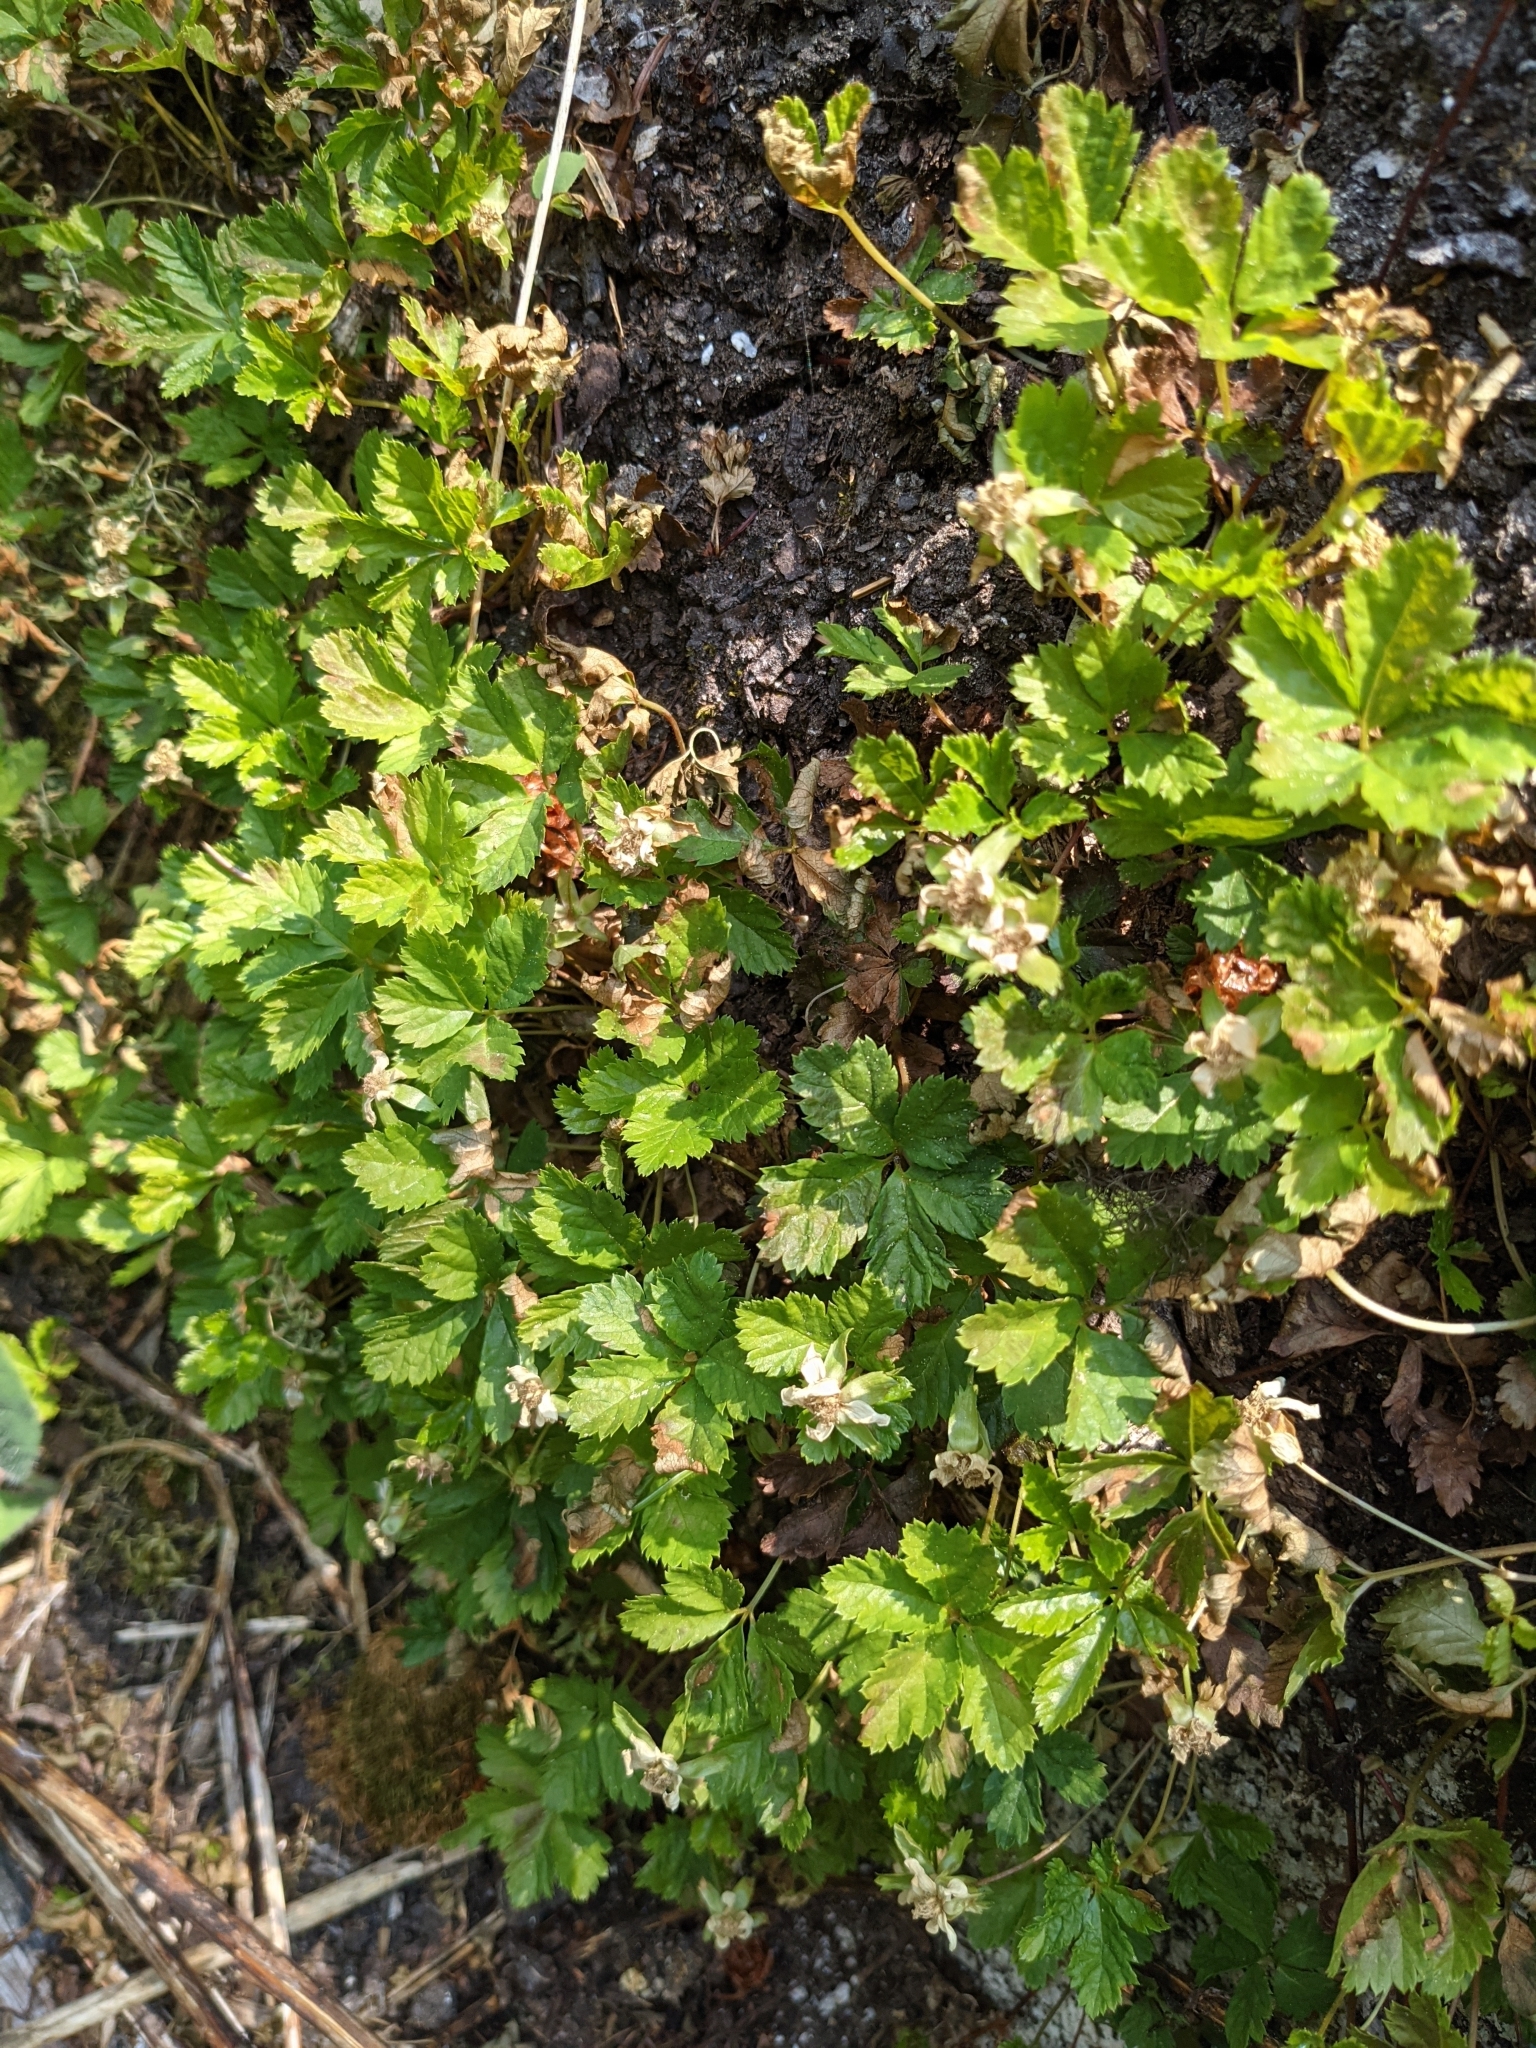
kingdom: Plantae
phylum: Tracheophyta
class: Magnoliopsida
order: Rosales
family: Rosaceae
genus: Rubus
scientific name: Rubus pedatus
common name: Creeping raspberry
